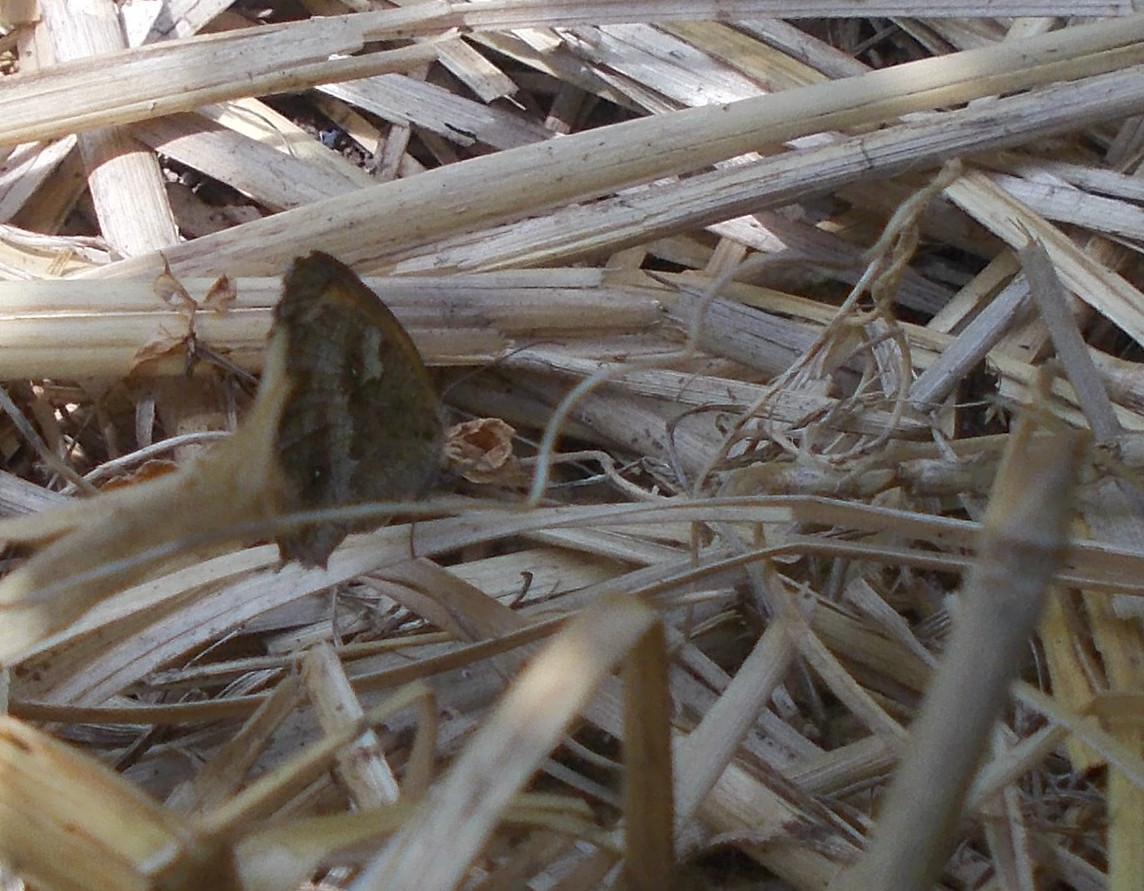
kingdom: Animalia
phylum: Arthropoda
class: Insecta
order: Lepidoptera
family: Nymphalidae
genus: Pyronia
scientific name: Pyronia tithonus
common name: Gatekeeper
